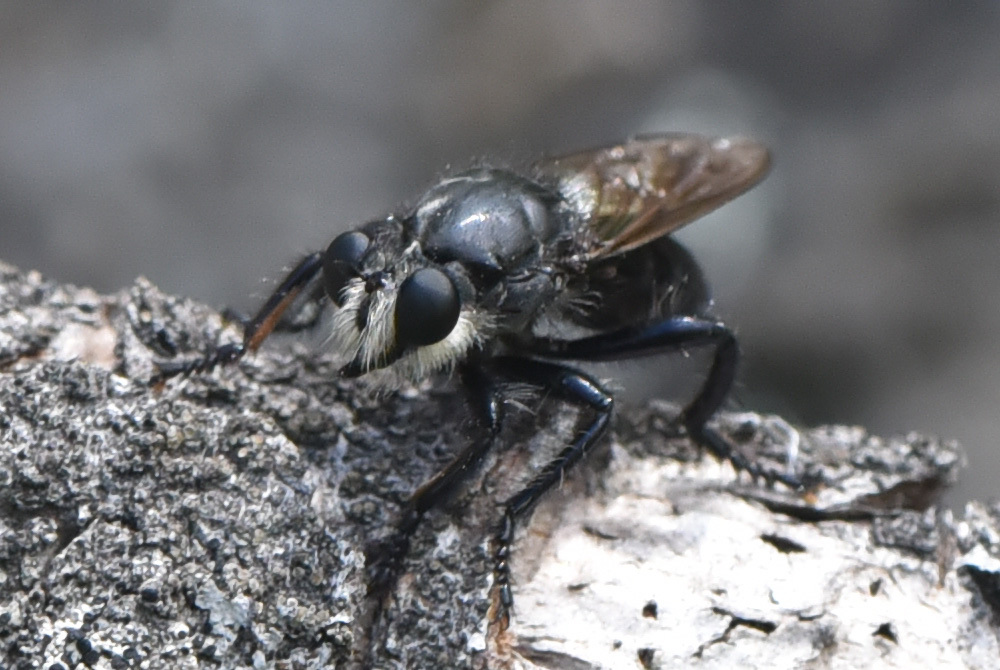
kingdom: Animalia
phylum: Arthropoda
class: Insecta
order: Diptera
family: Asilidae
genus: Pogonosoma
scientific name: Pogonosoma ridingsi
